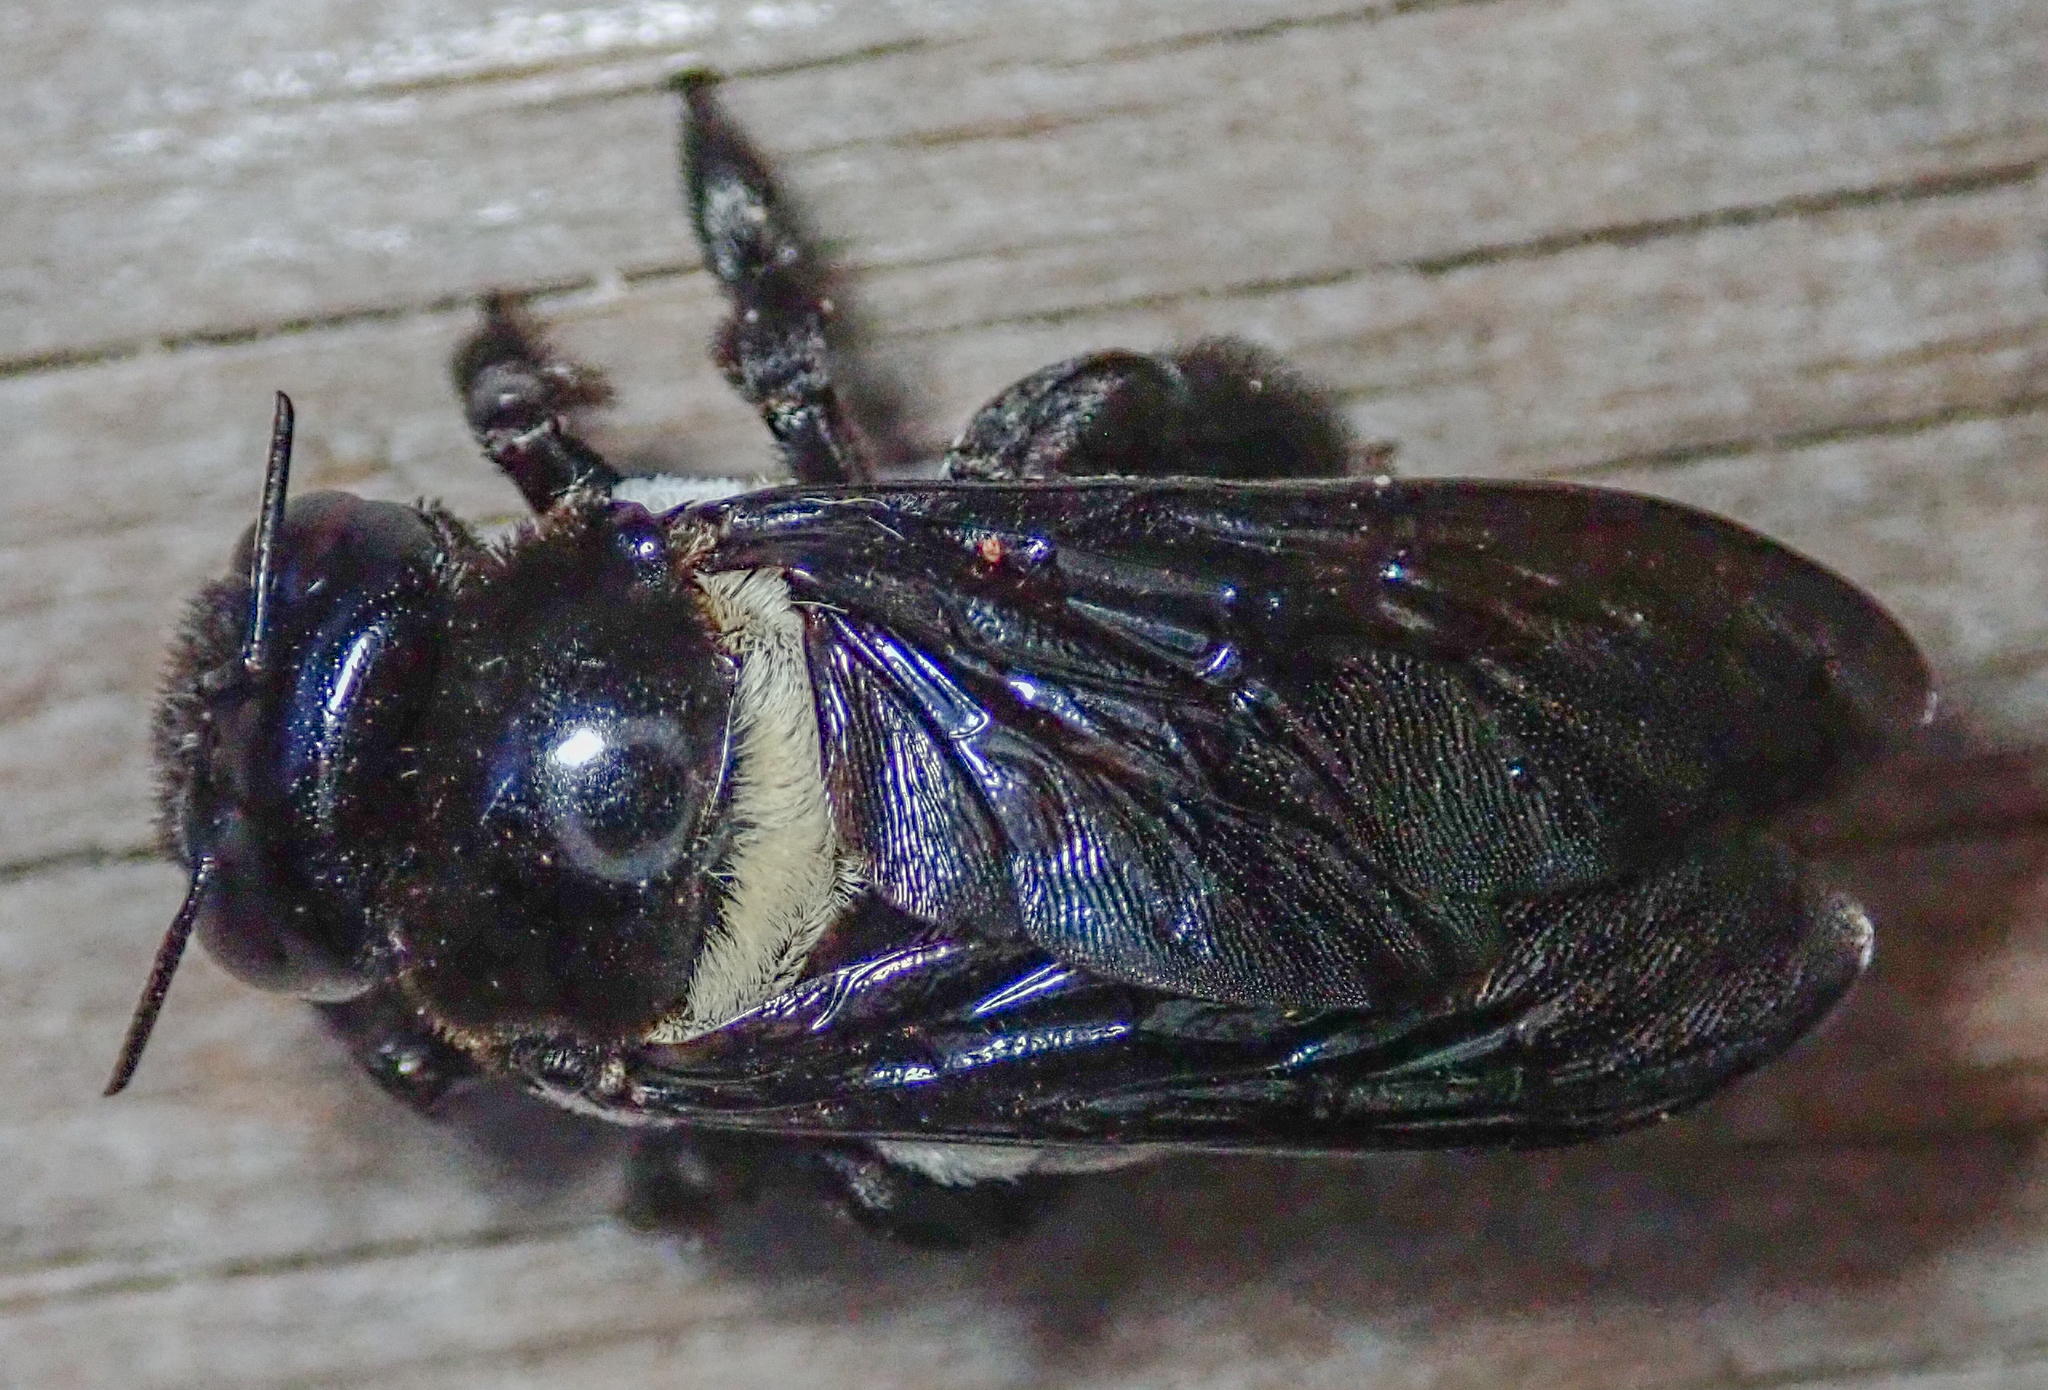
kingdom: Animalia
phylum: Arthropoda
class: Insecta
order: Hymenoptera
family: Apidae
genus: Xylocopa
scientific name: Xylocopa inconstans
